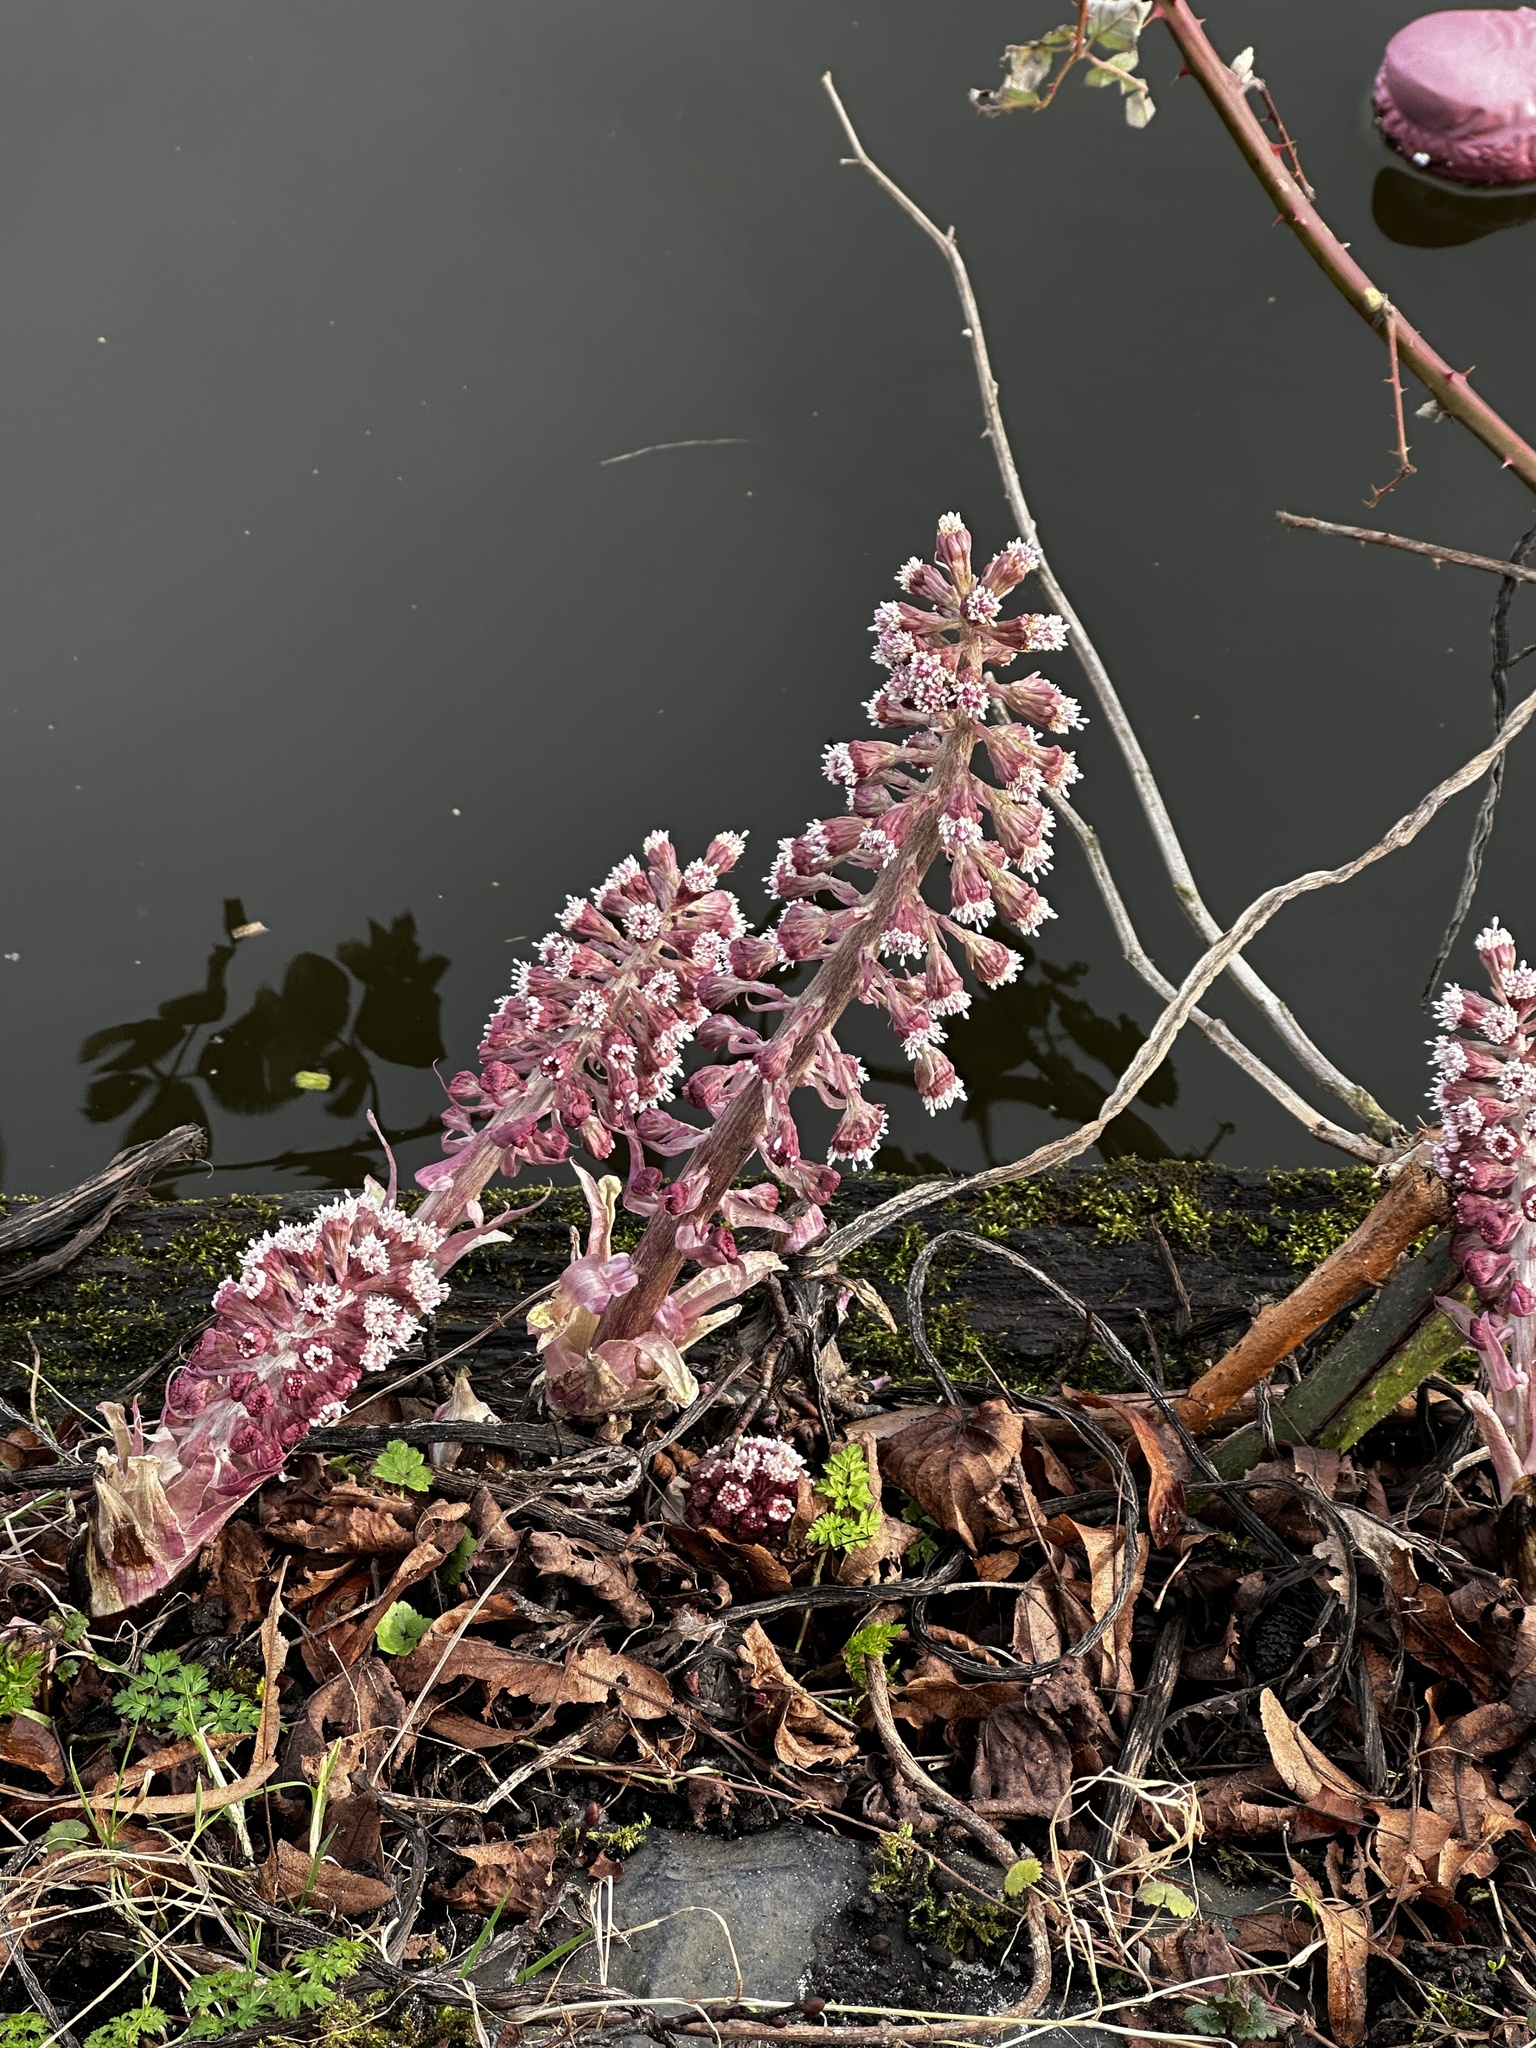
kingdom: Plantae
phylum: Tracheophyta
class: Magnoliopsida
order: Asterales
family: Asteraceae
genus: Petasites
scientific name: Petasites hybridus
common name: Butterbur
